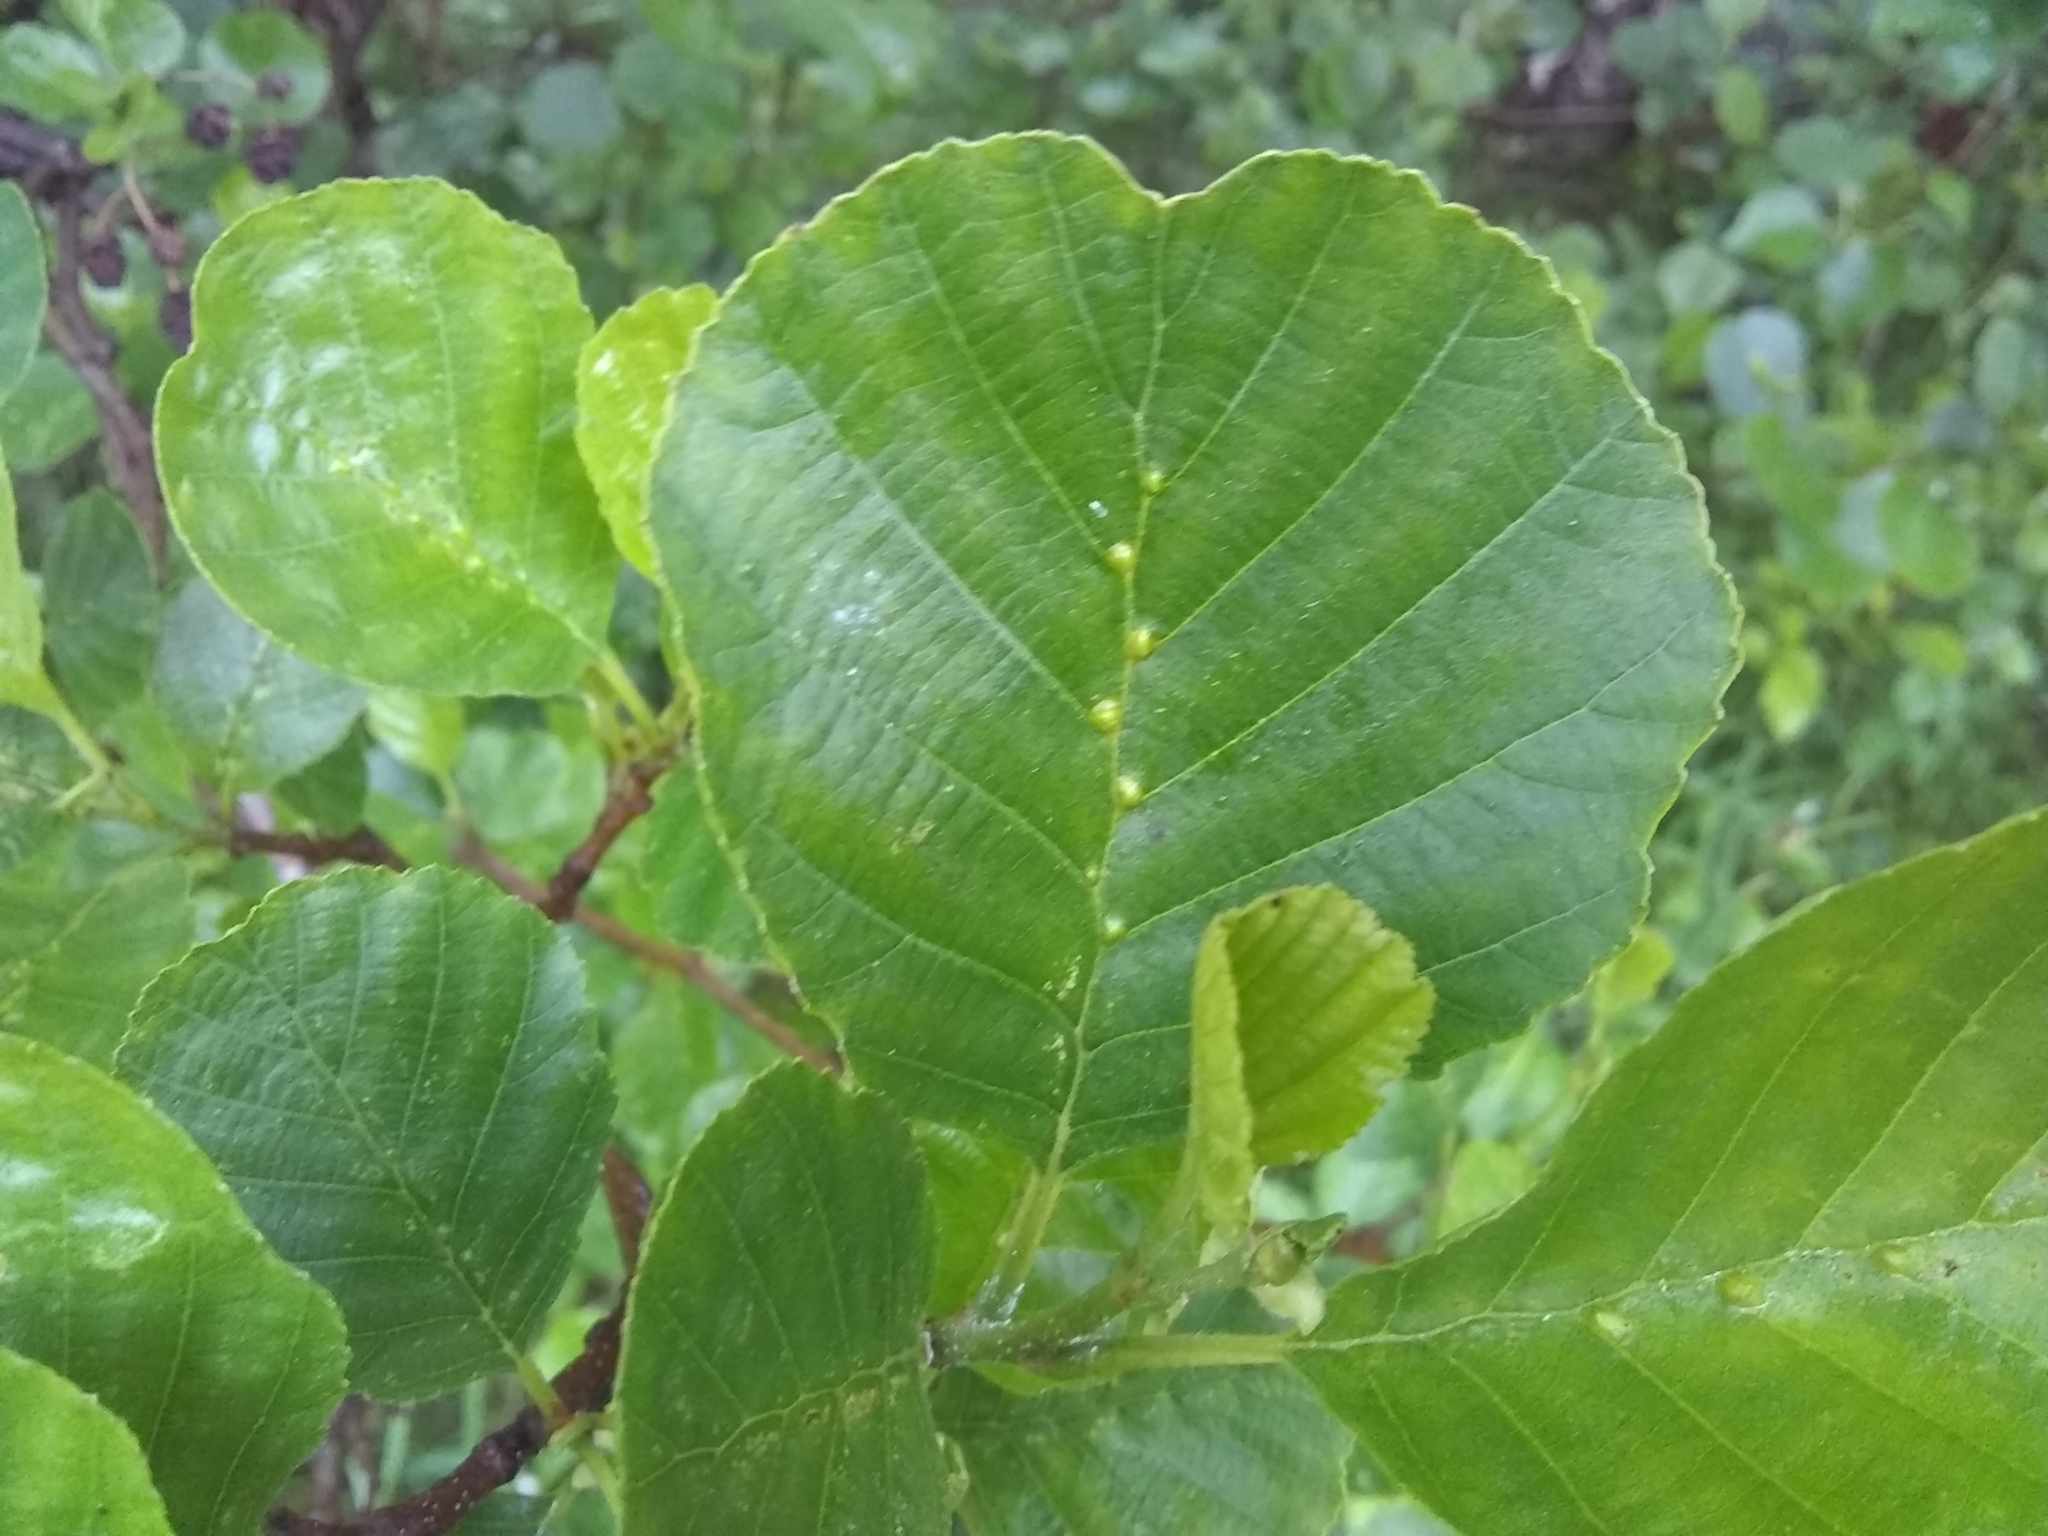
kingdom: Animalia
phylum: Arthropoda
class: Arachnida
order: Trombidiformes
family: Eriophyidae
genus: Eriophyes
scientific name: Eriophyes inangulis
